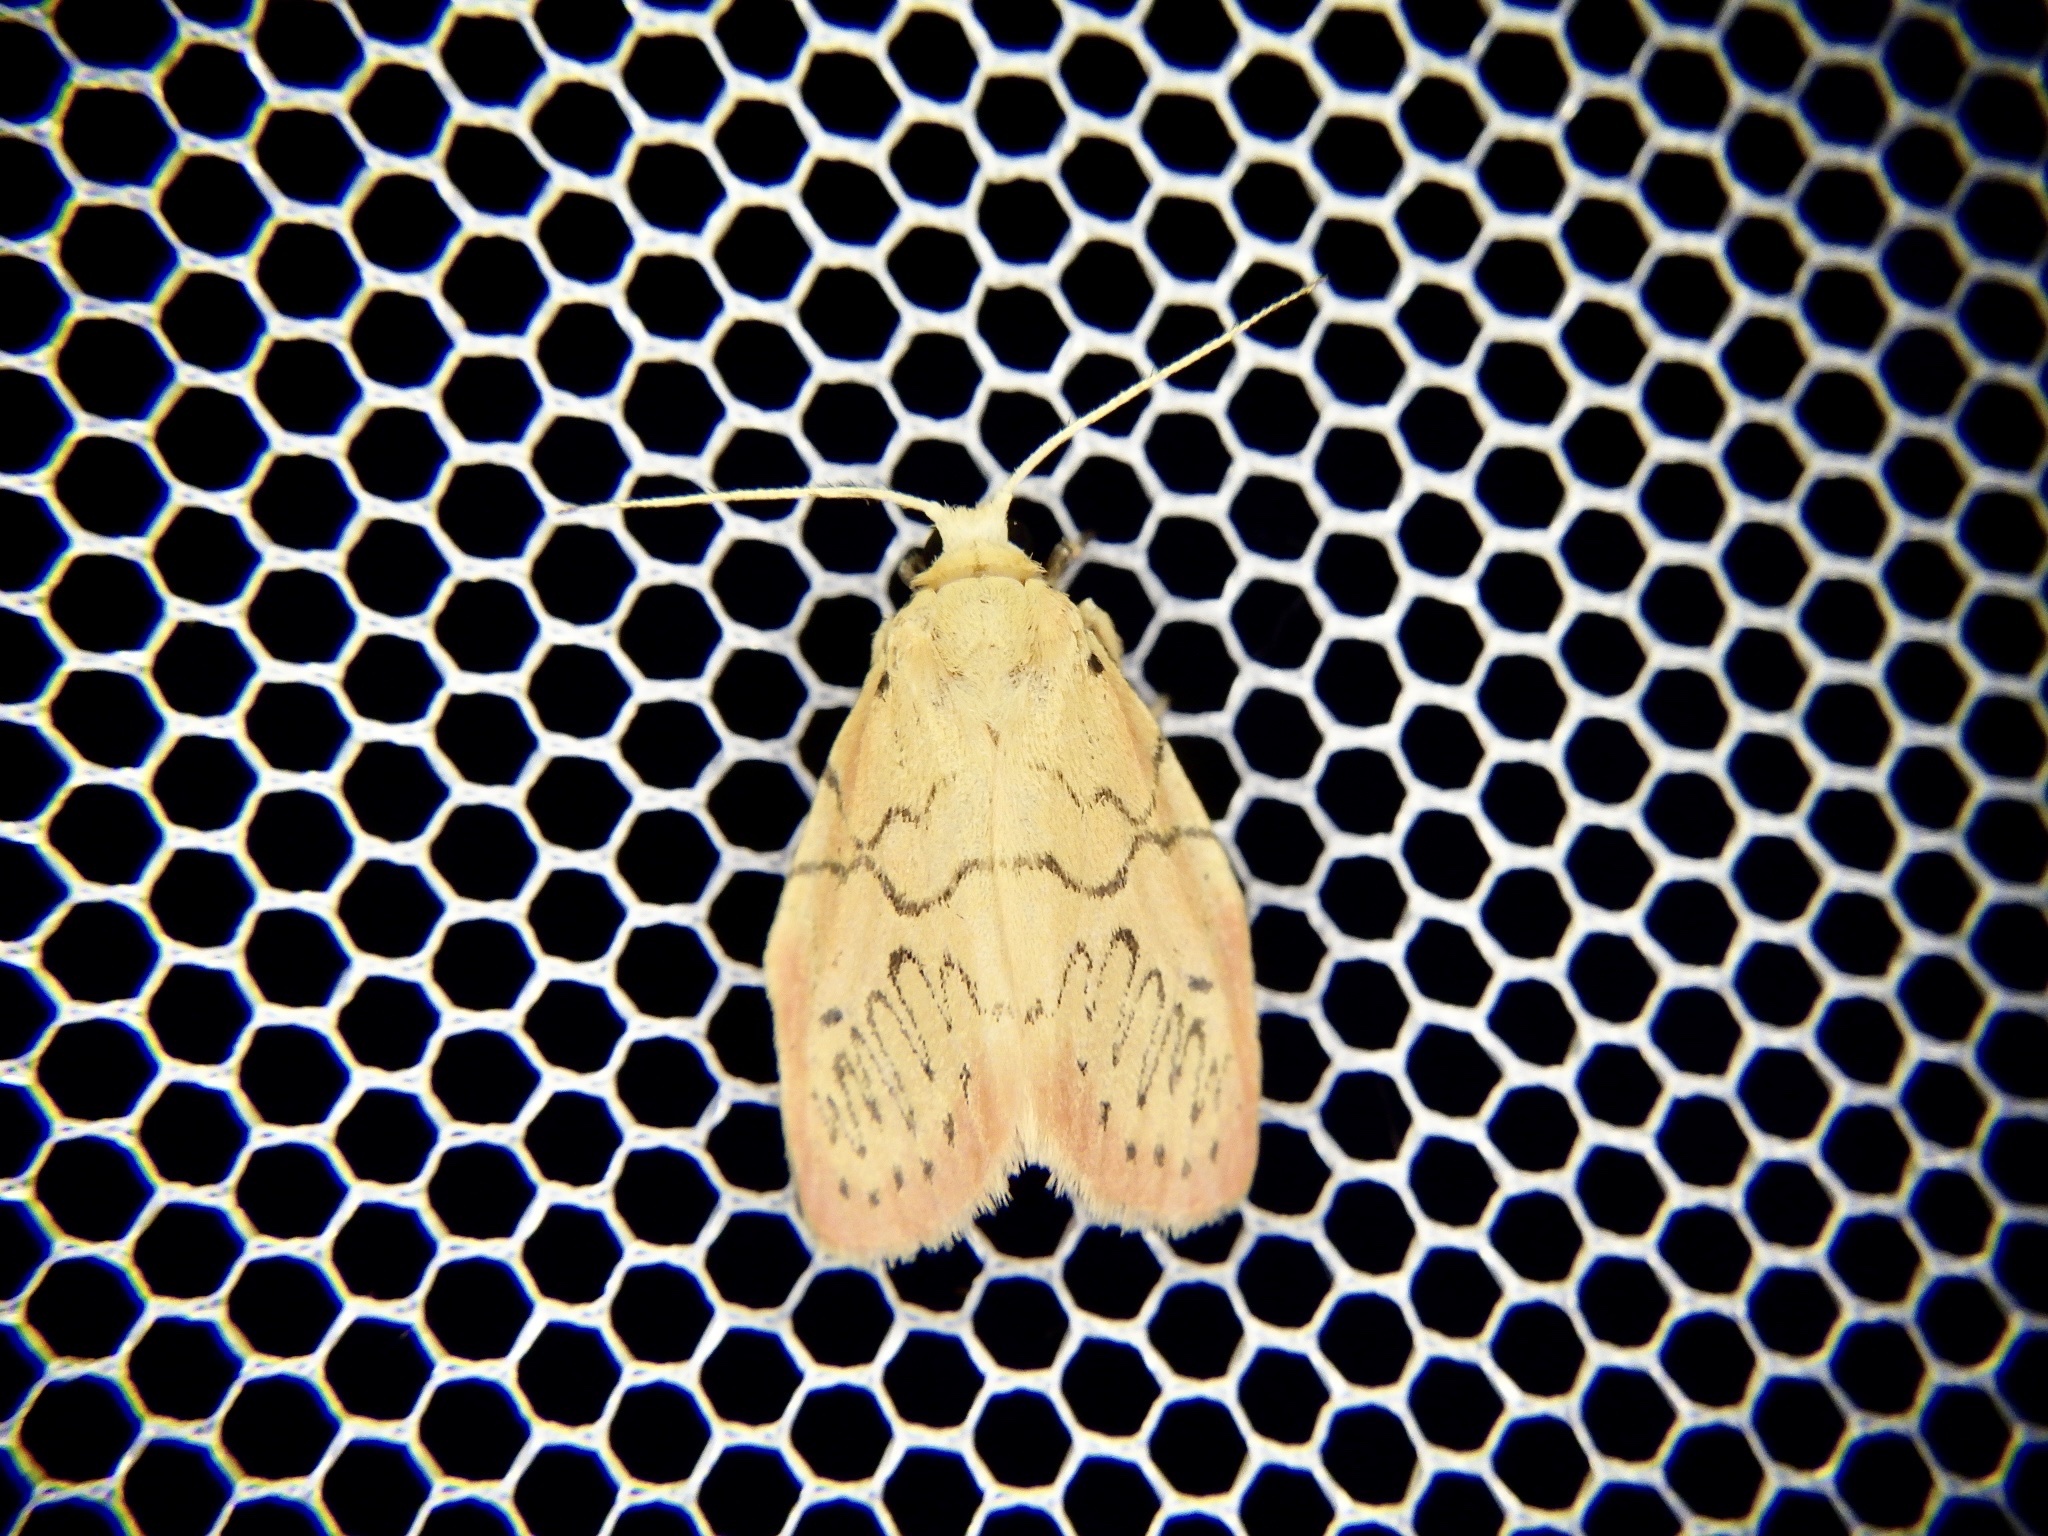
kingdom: Animalia
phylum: Arthropoda
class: Insecta
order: Lepidoptera
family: Erebidae
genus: Miltochrista
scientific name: Miltochrista miniata
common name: Rosy footman
